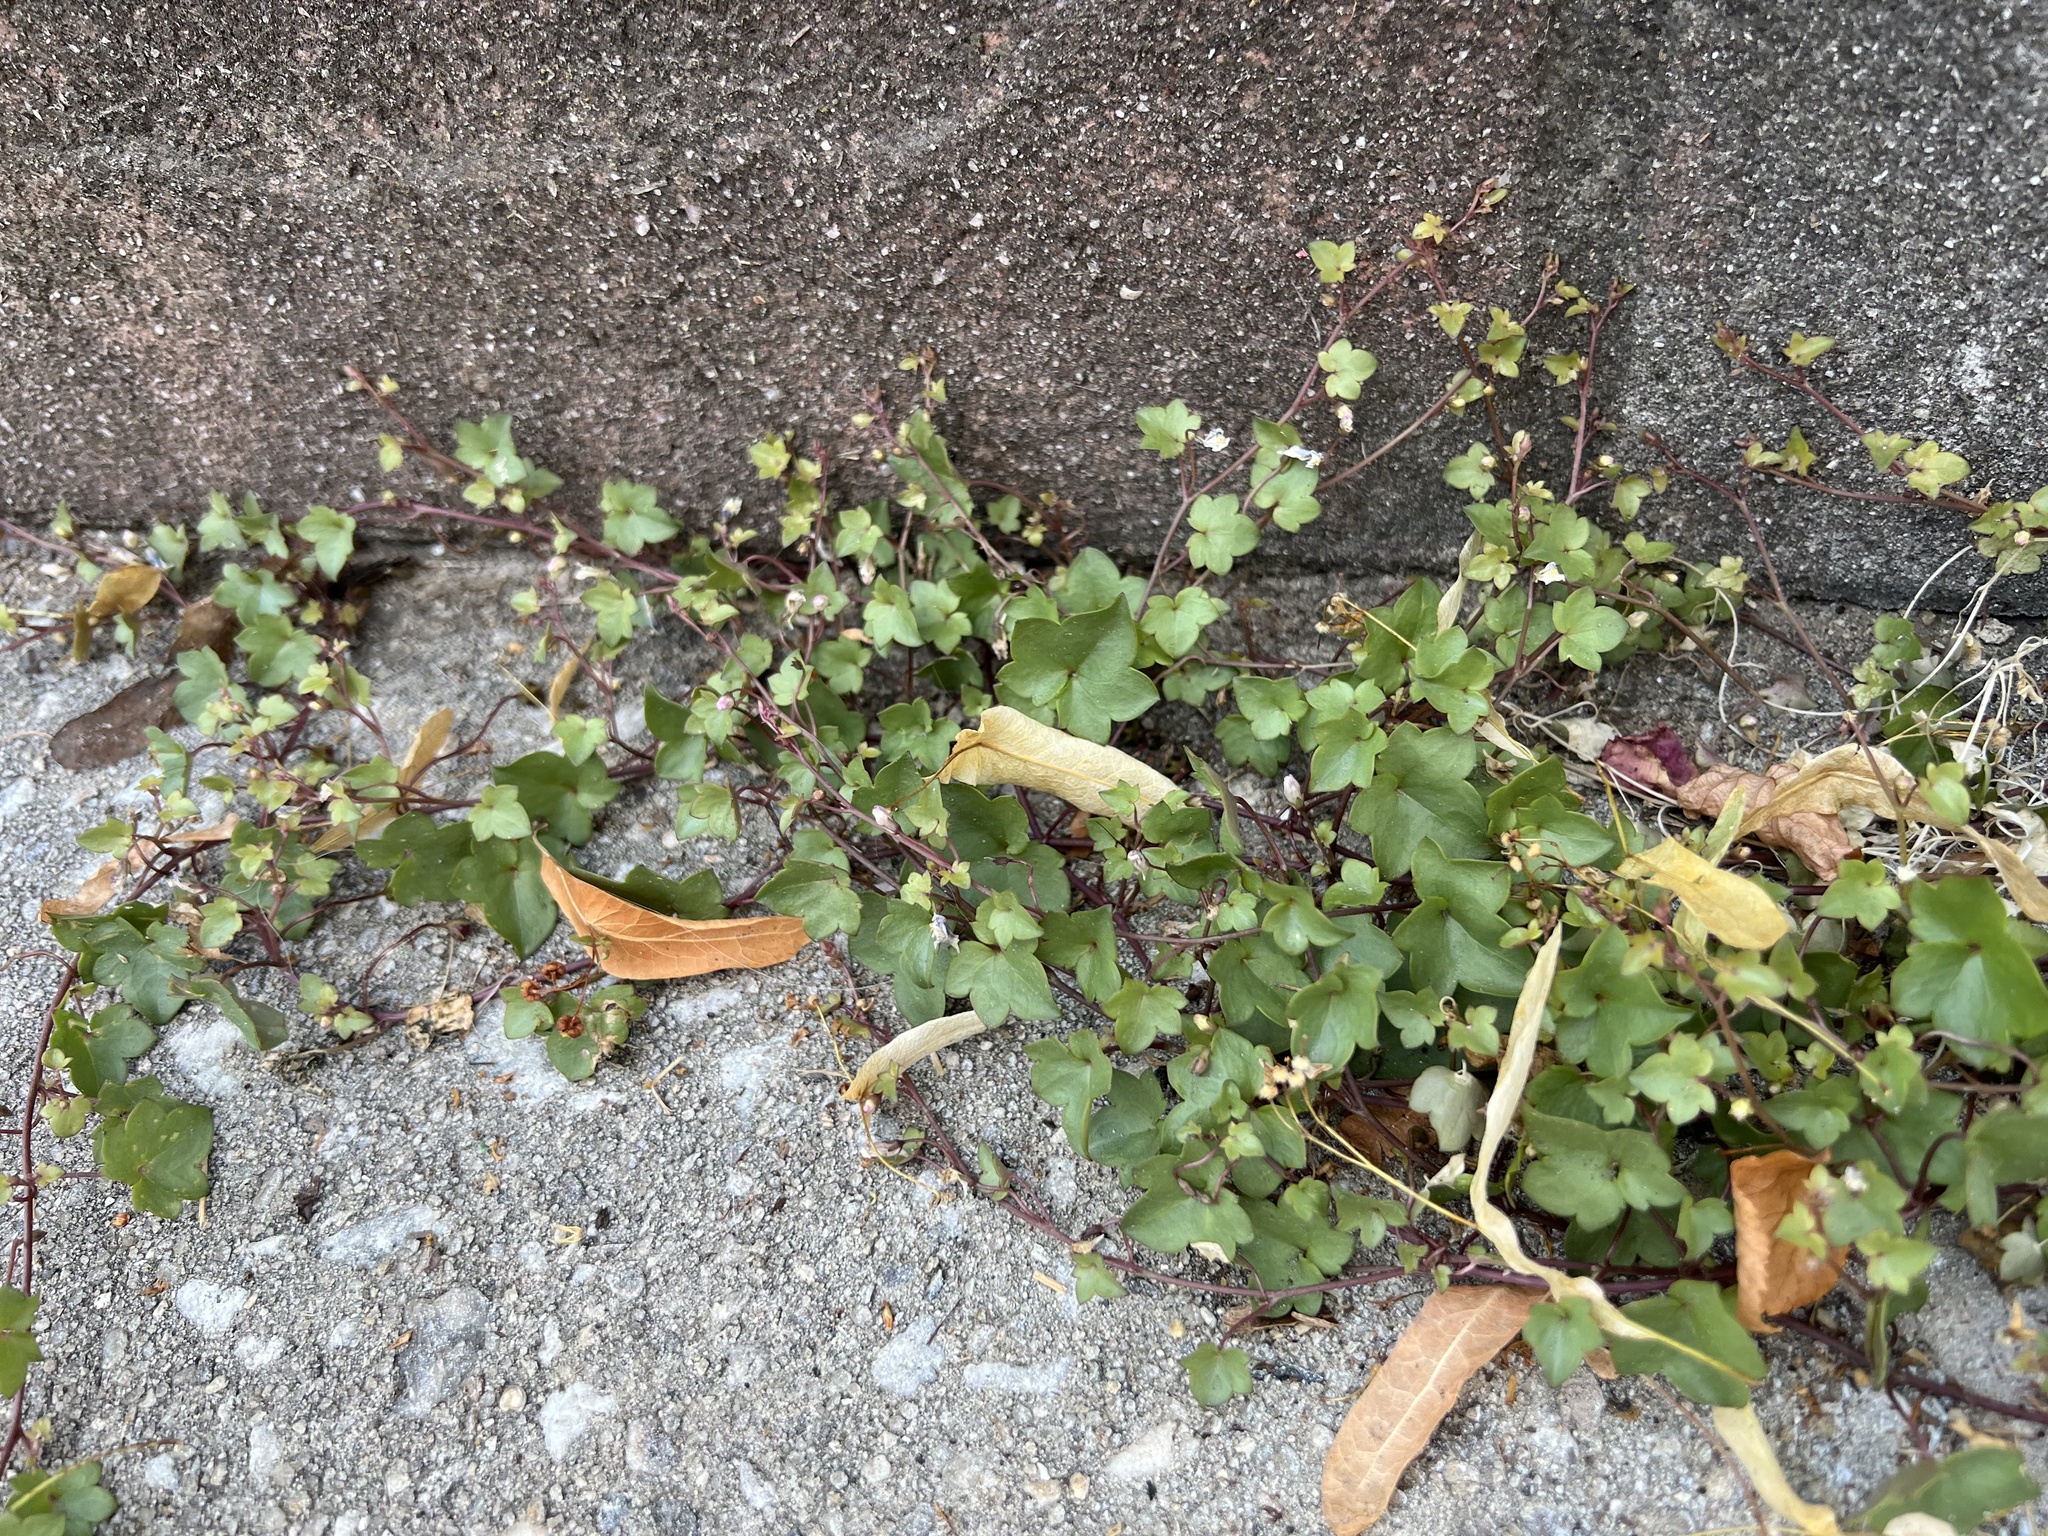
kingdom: Plantae
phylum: Tracheophyta
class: Magnoliopsida
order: Lamiales
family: Plantaginaceae
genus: Cymbalaria
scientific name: Cymbalaria muralis
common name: Ivy-leaved toadflax
